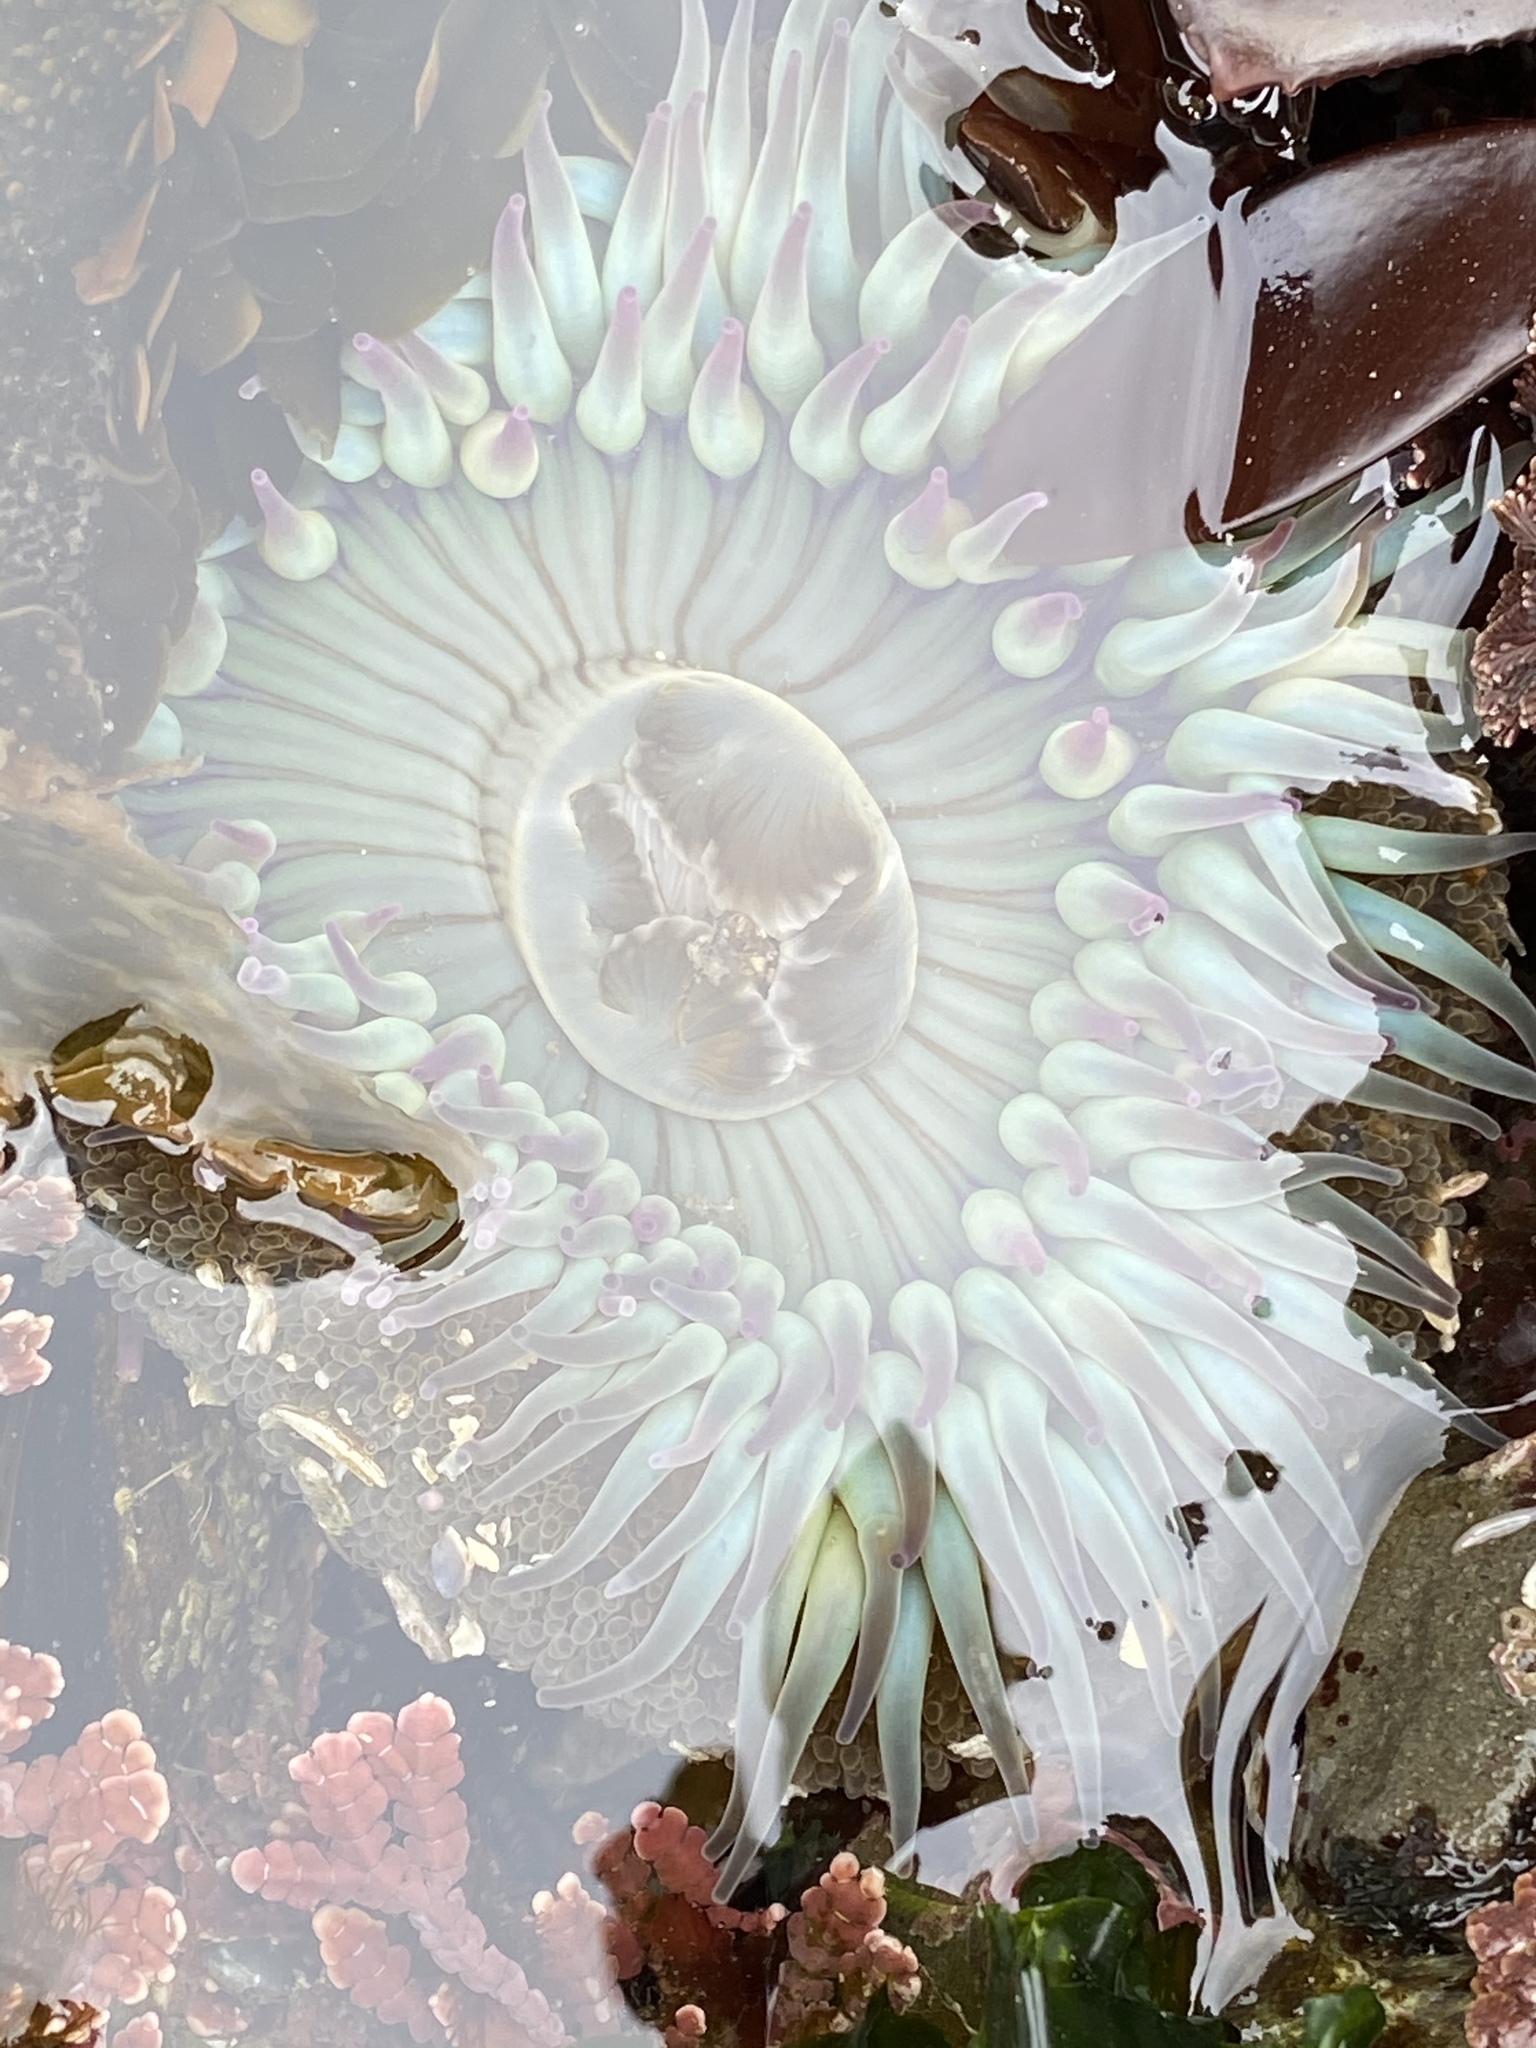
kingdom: Animalia
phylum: Cnidaria
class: Anthozoa
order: Actiniaria
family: Actiniidae
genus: Anthopleura
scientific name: Anthopleura sola
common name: Sun anemone
